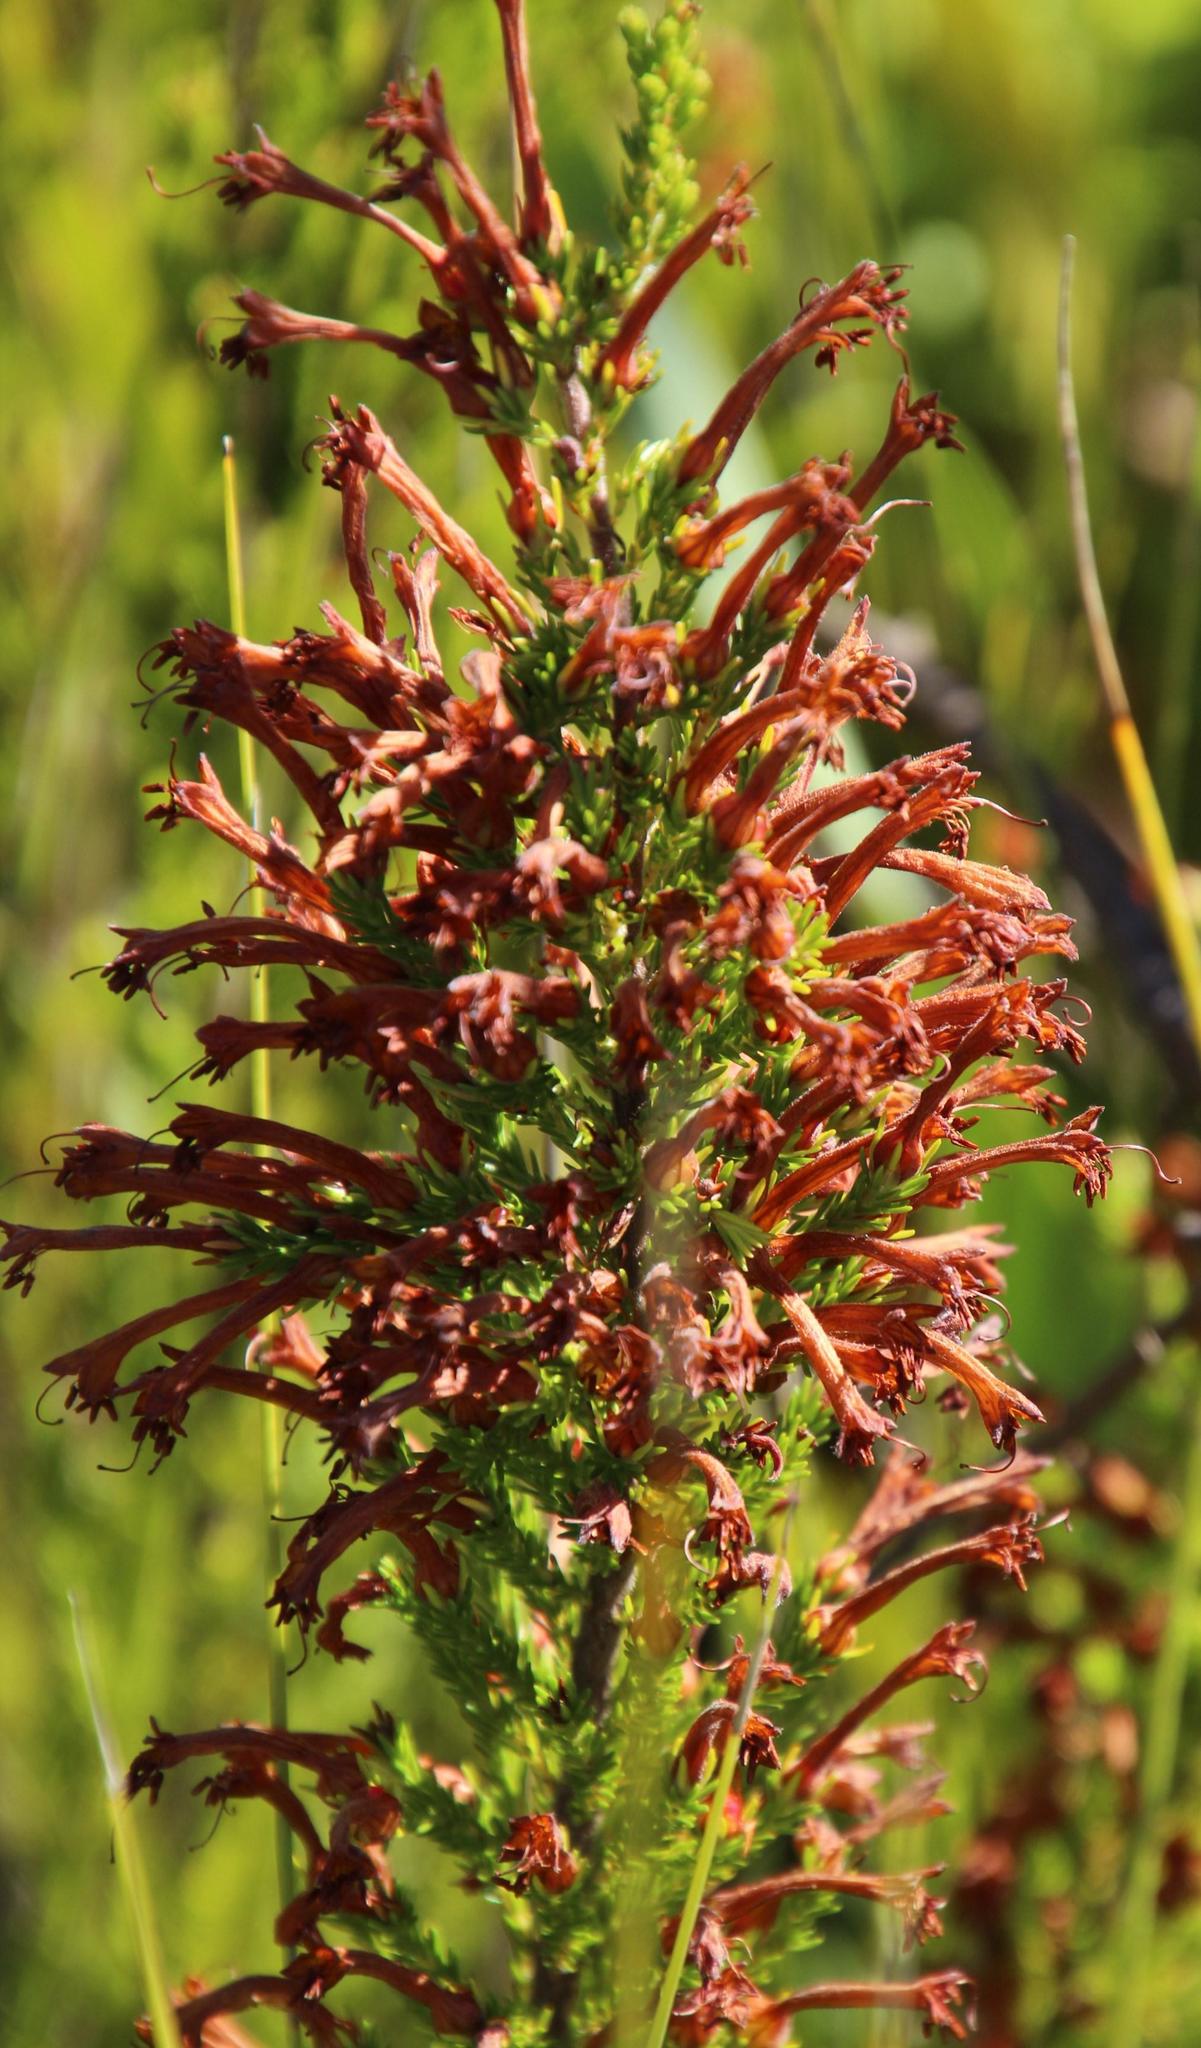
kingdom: Plantae
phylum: Tracheophyta
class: Magnoliopsida
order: Ericales
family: Ericaceae
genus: Erica
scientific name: Erica curviflora
